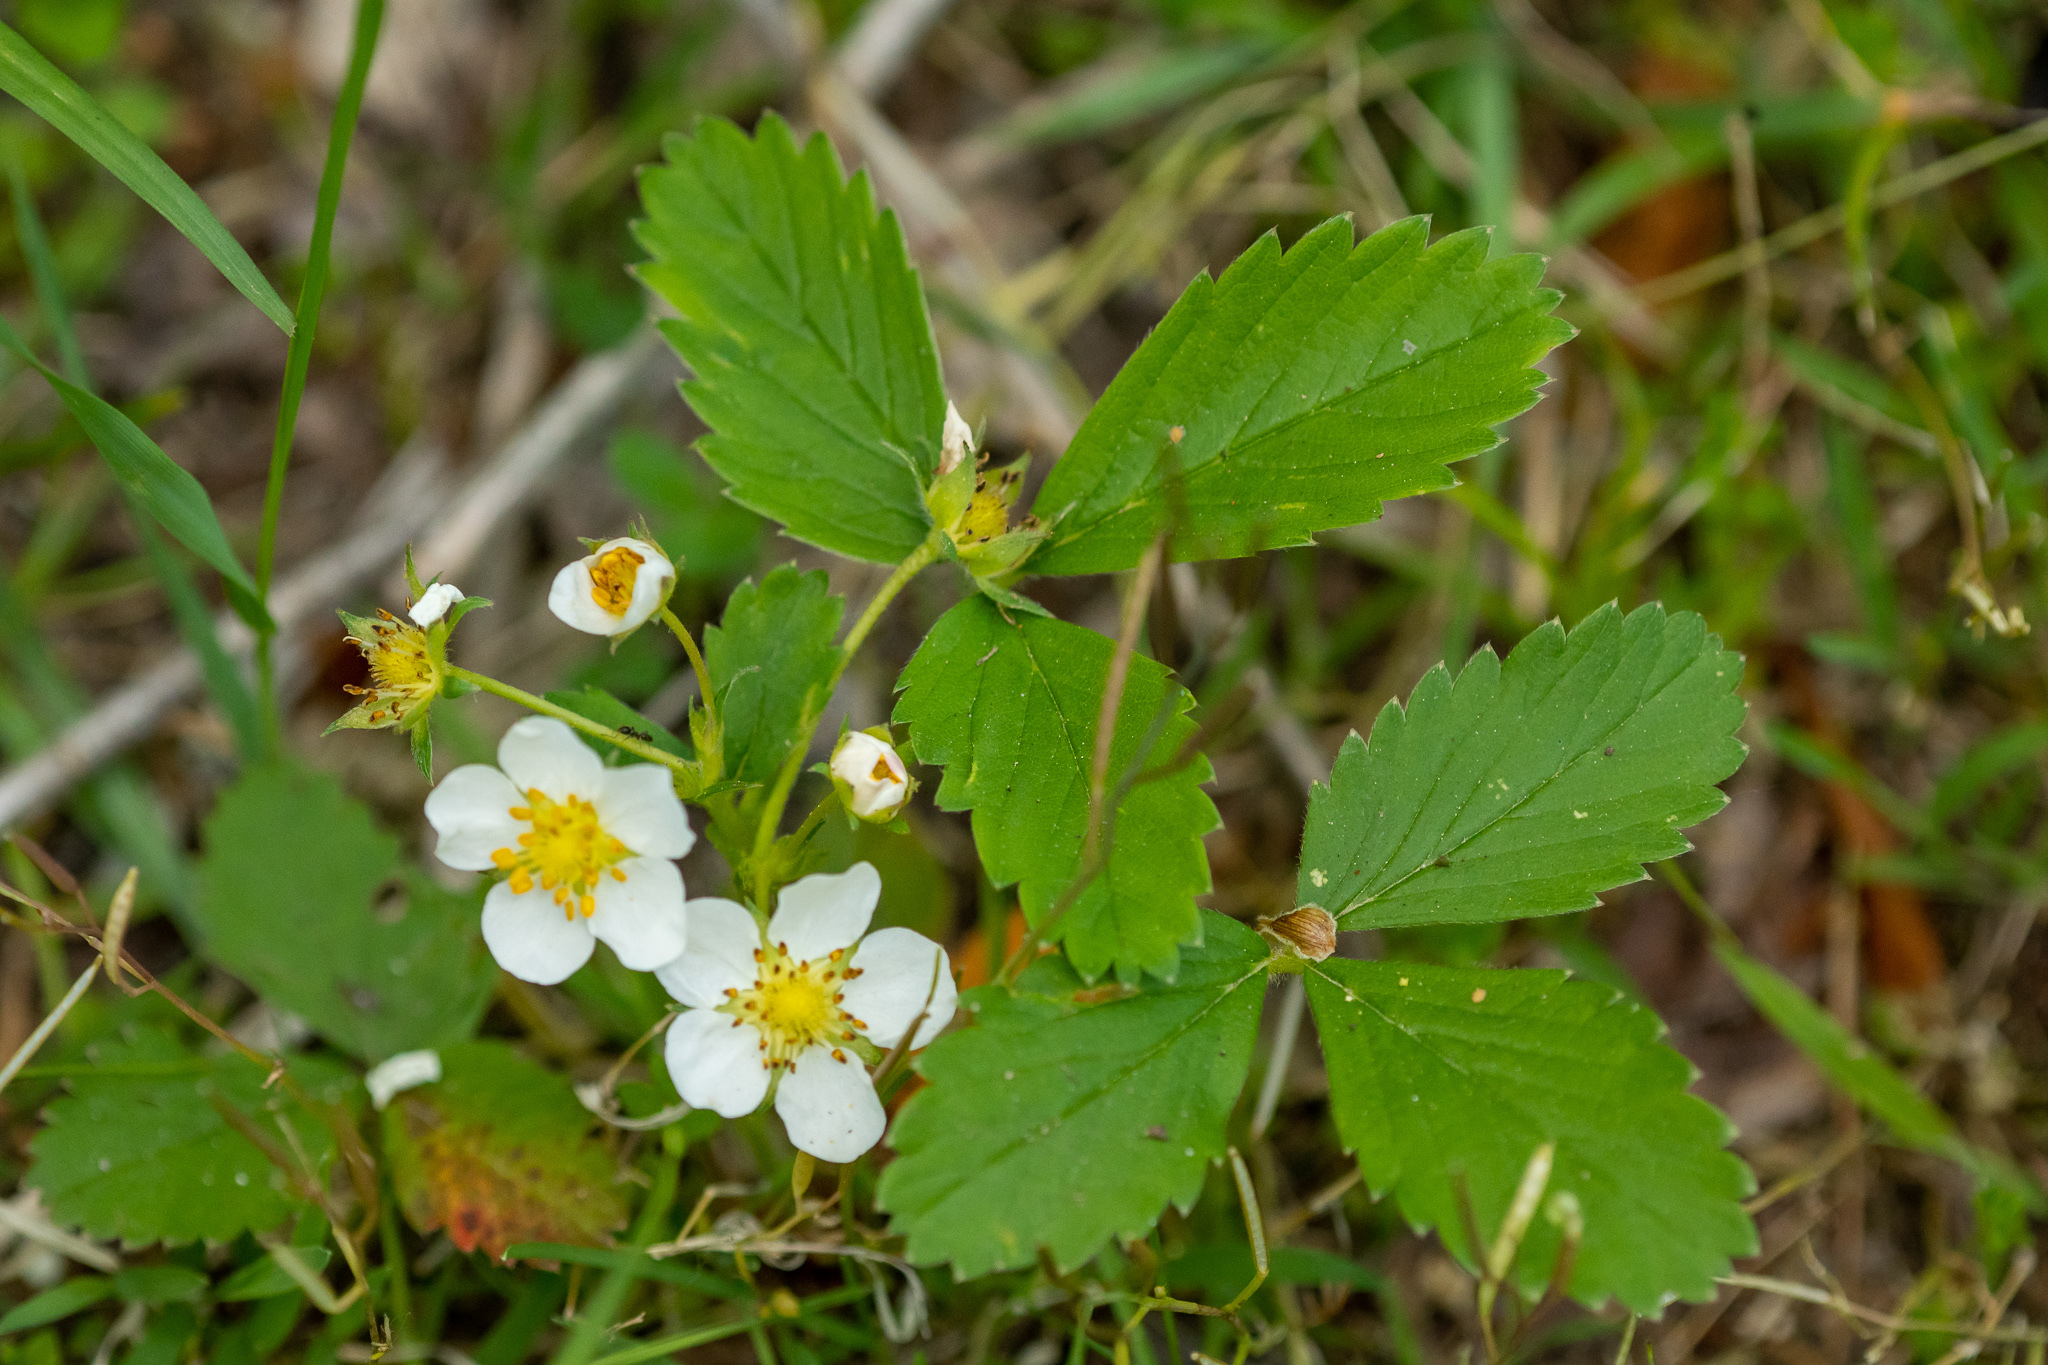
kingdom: Plantae
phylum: Tracheophyta
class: Magnoliopsida
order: Rosales
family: Rosaceae
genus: Fragaria
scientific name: Fragaria virginiana
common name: Thickleaved wild strawberry
